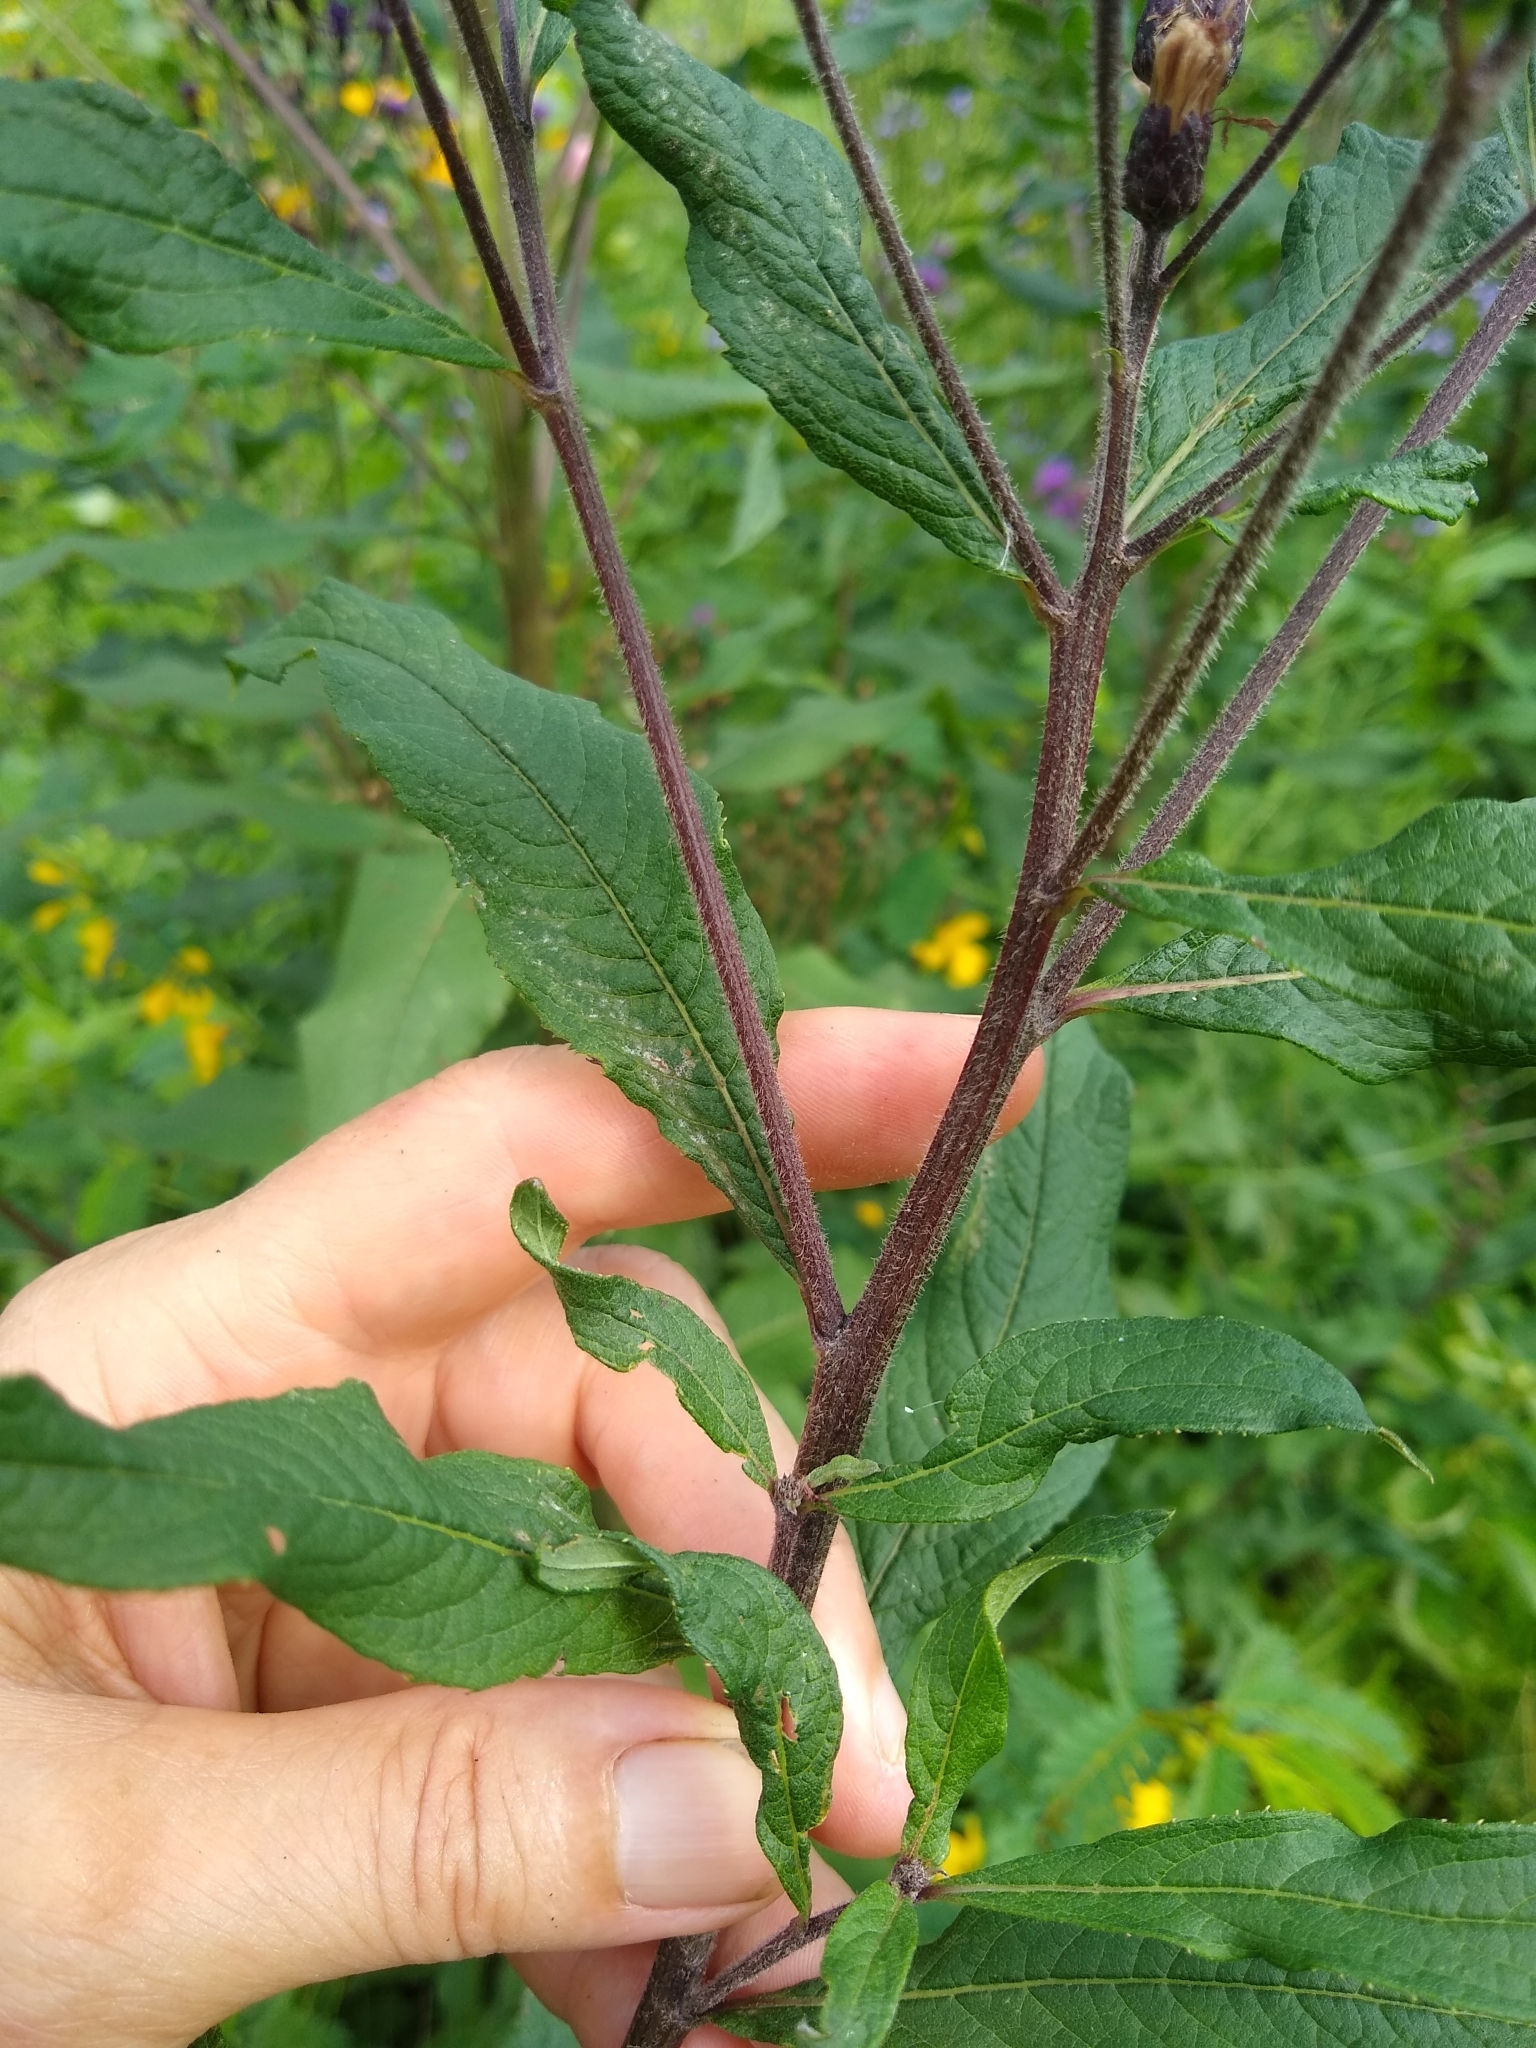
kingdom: Plantae
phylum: Tracheophyta
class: Magnoliopsida
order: Asterales
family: Asteraceae
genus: Vernonia
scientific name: Vernonia missurica
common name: Missouri ironweed
